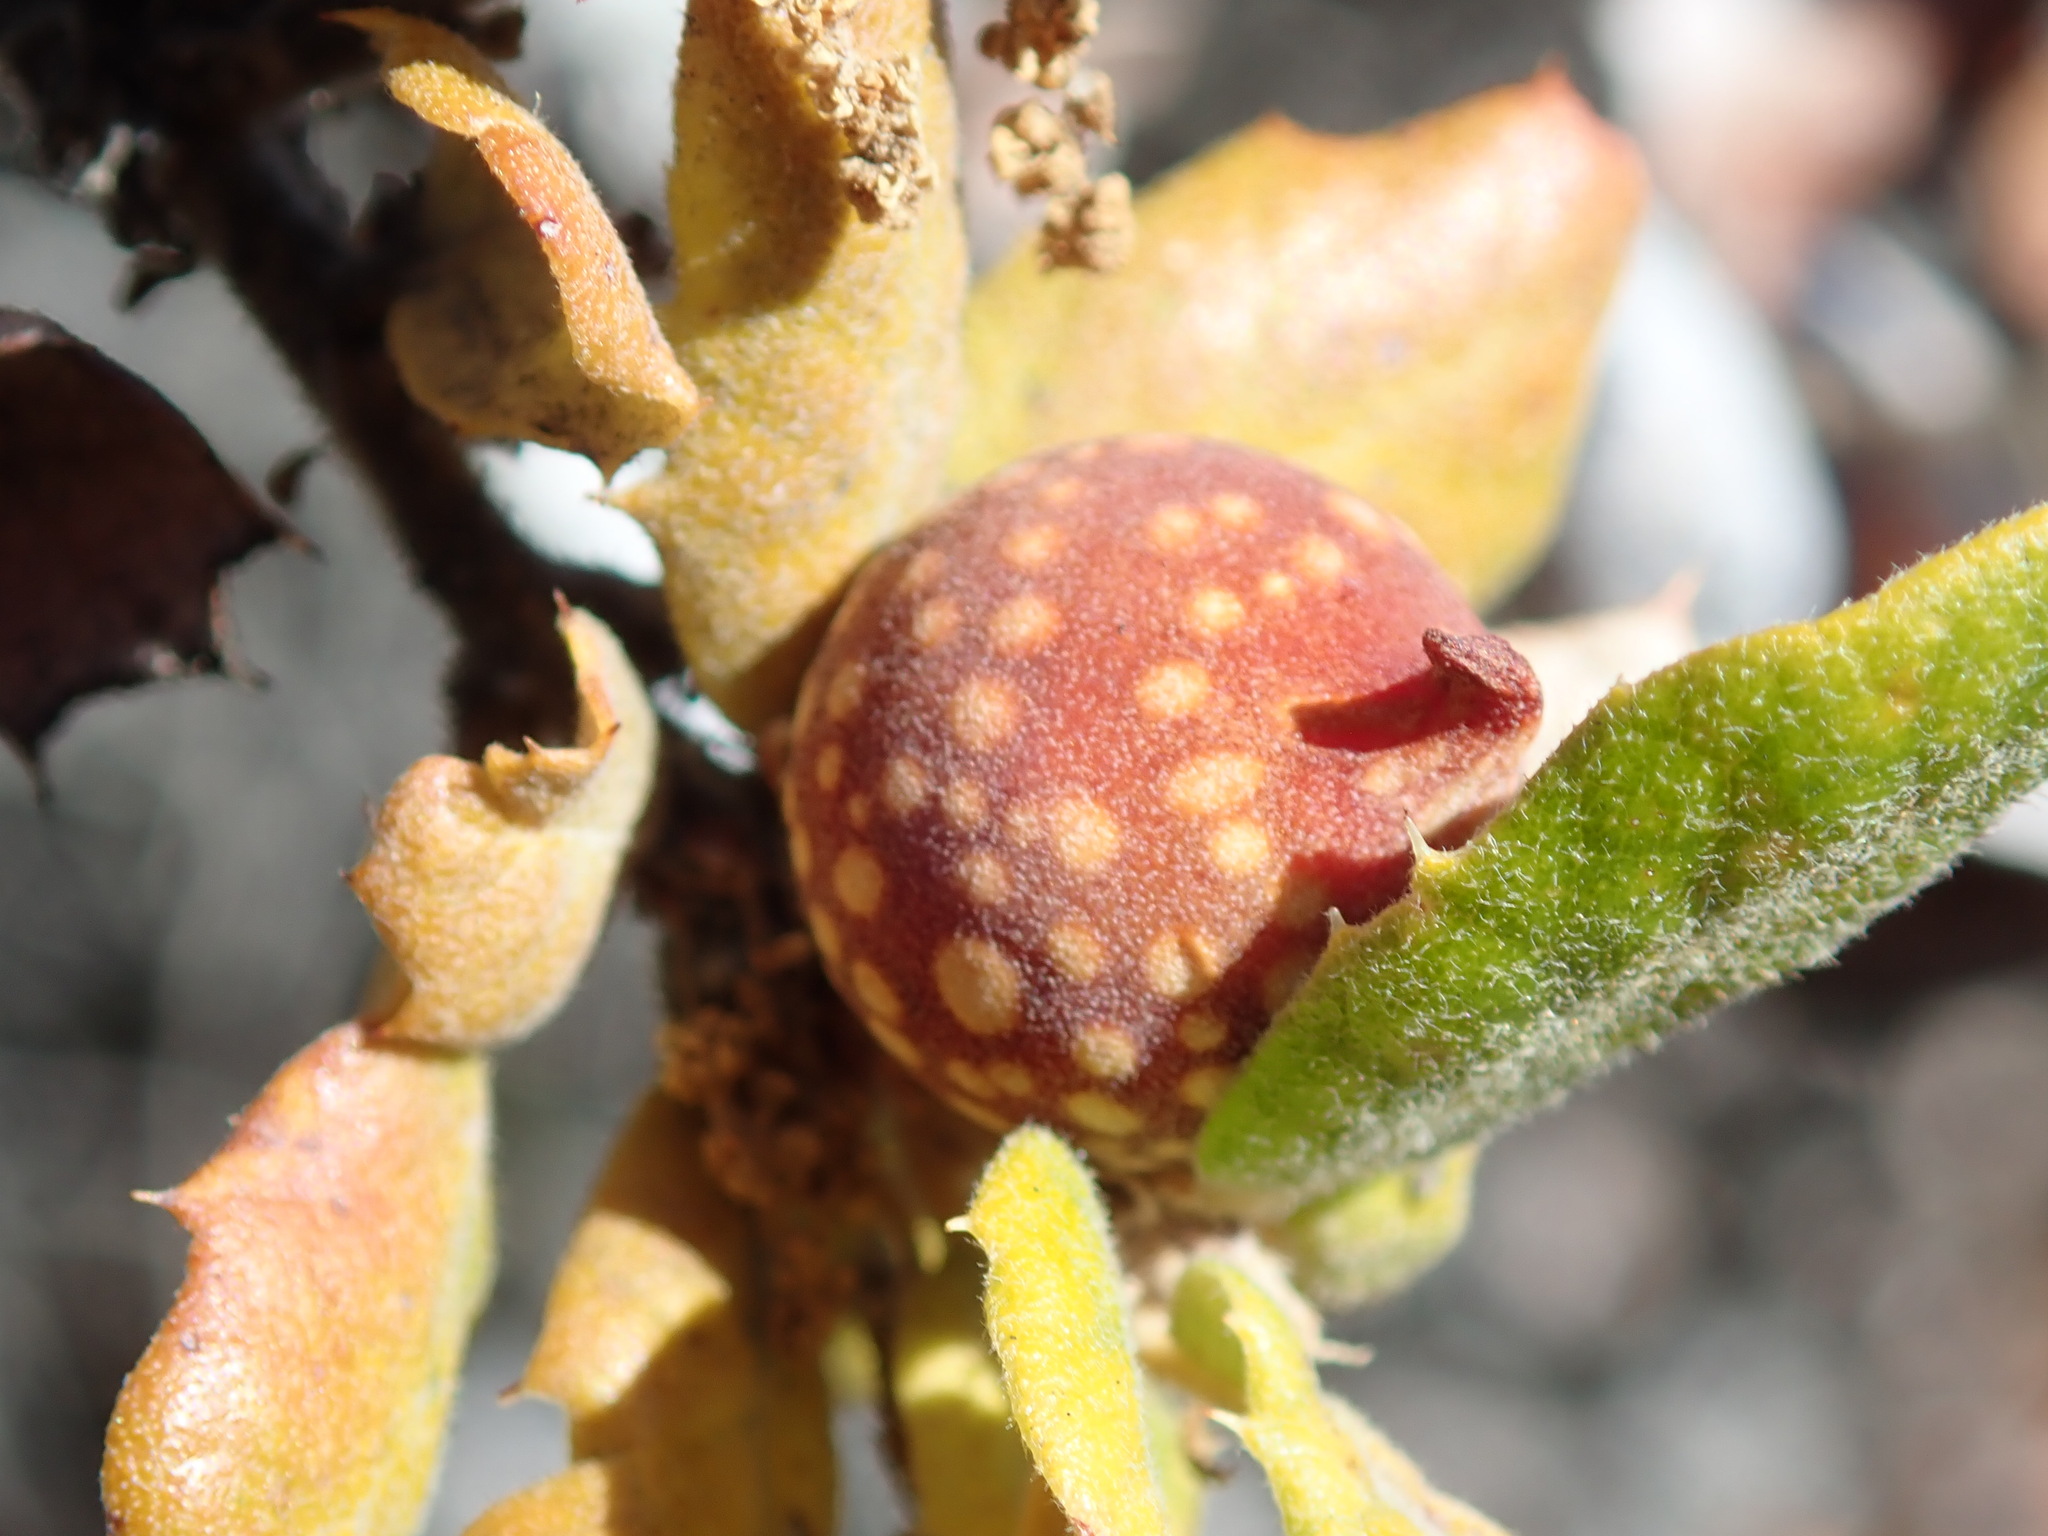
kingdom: Animalia
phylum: Arthropoda
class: Insecta
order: Hymenoptera
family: Cynipidae
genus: Burnettweldia
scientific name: Burnettweldia
